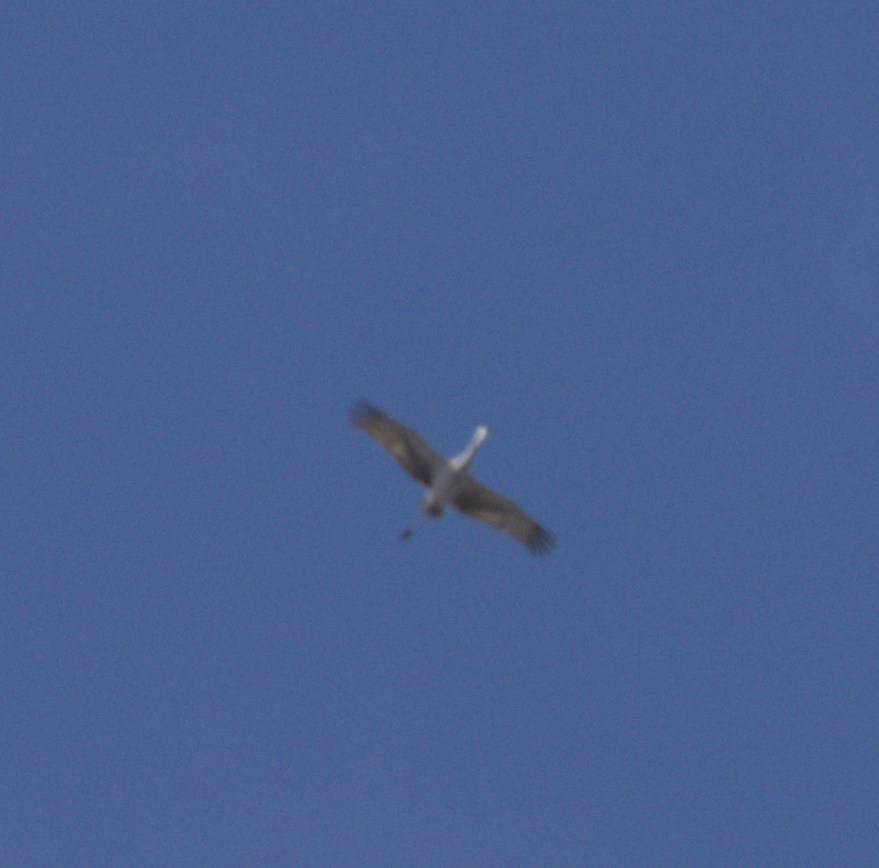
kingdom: Animalia
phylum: Chordata
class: Aves
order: Gruiformes
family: Gruidae
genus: Grus
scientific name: Grus canadensis
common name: Sandhill crane
